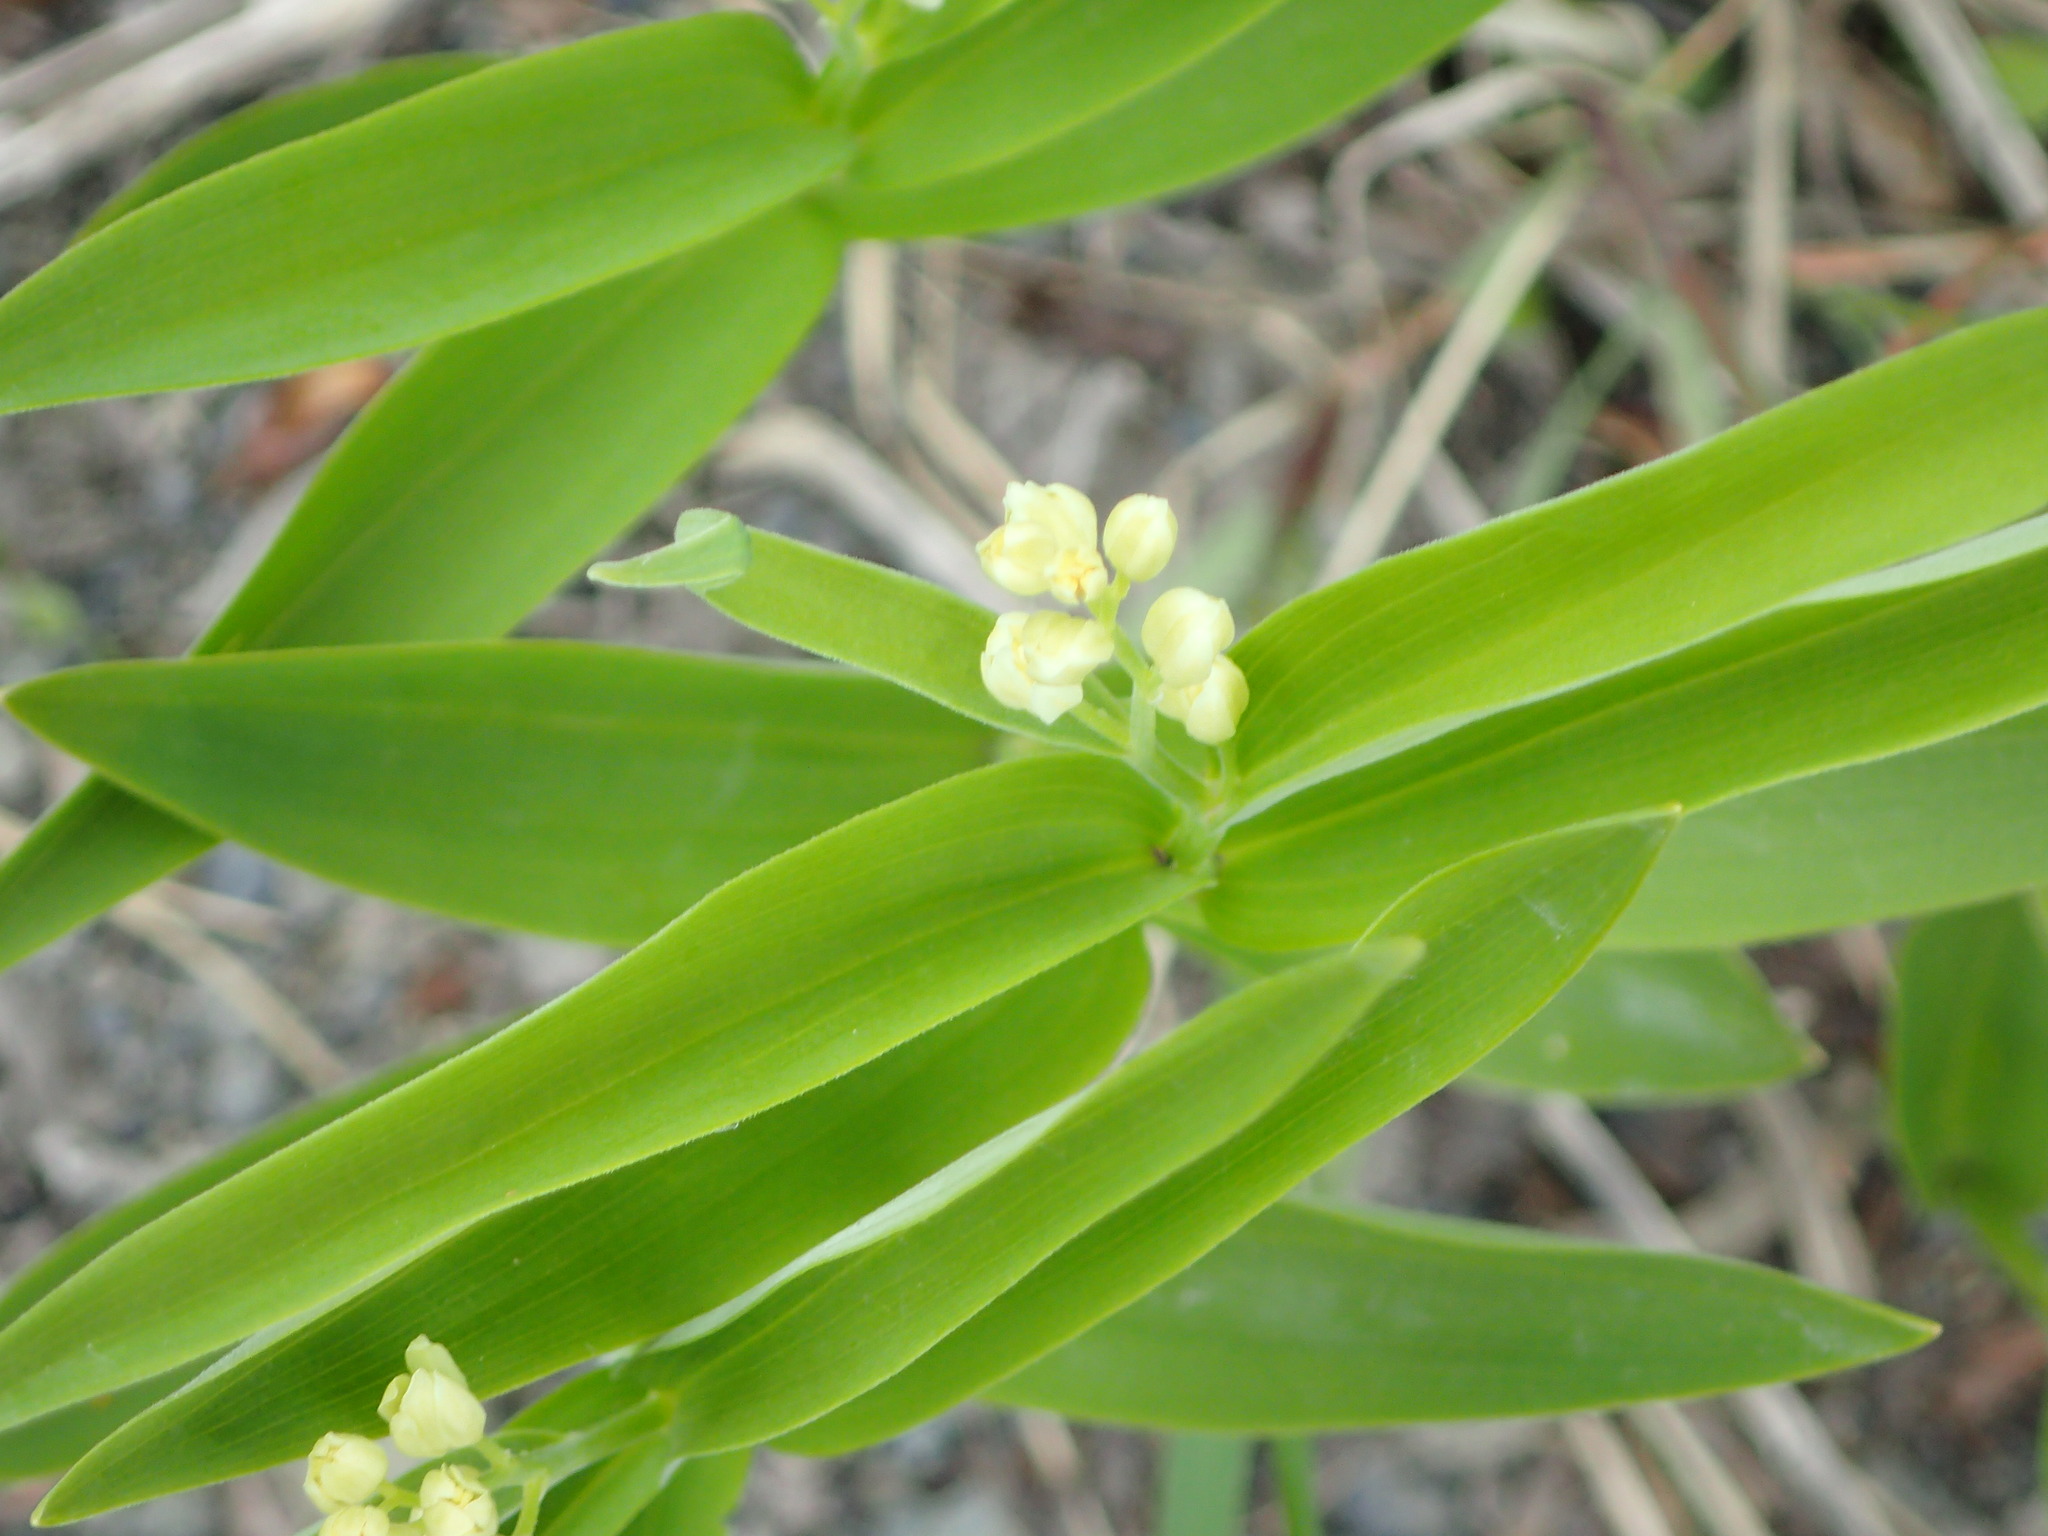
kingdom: Plantae
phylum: Tracheophyta
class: Liliopsida
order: Asparagales
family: Asparagaceae
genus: Maianthemum
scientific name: Maianthemum stellatum
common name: Little false solomon's seal
